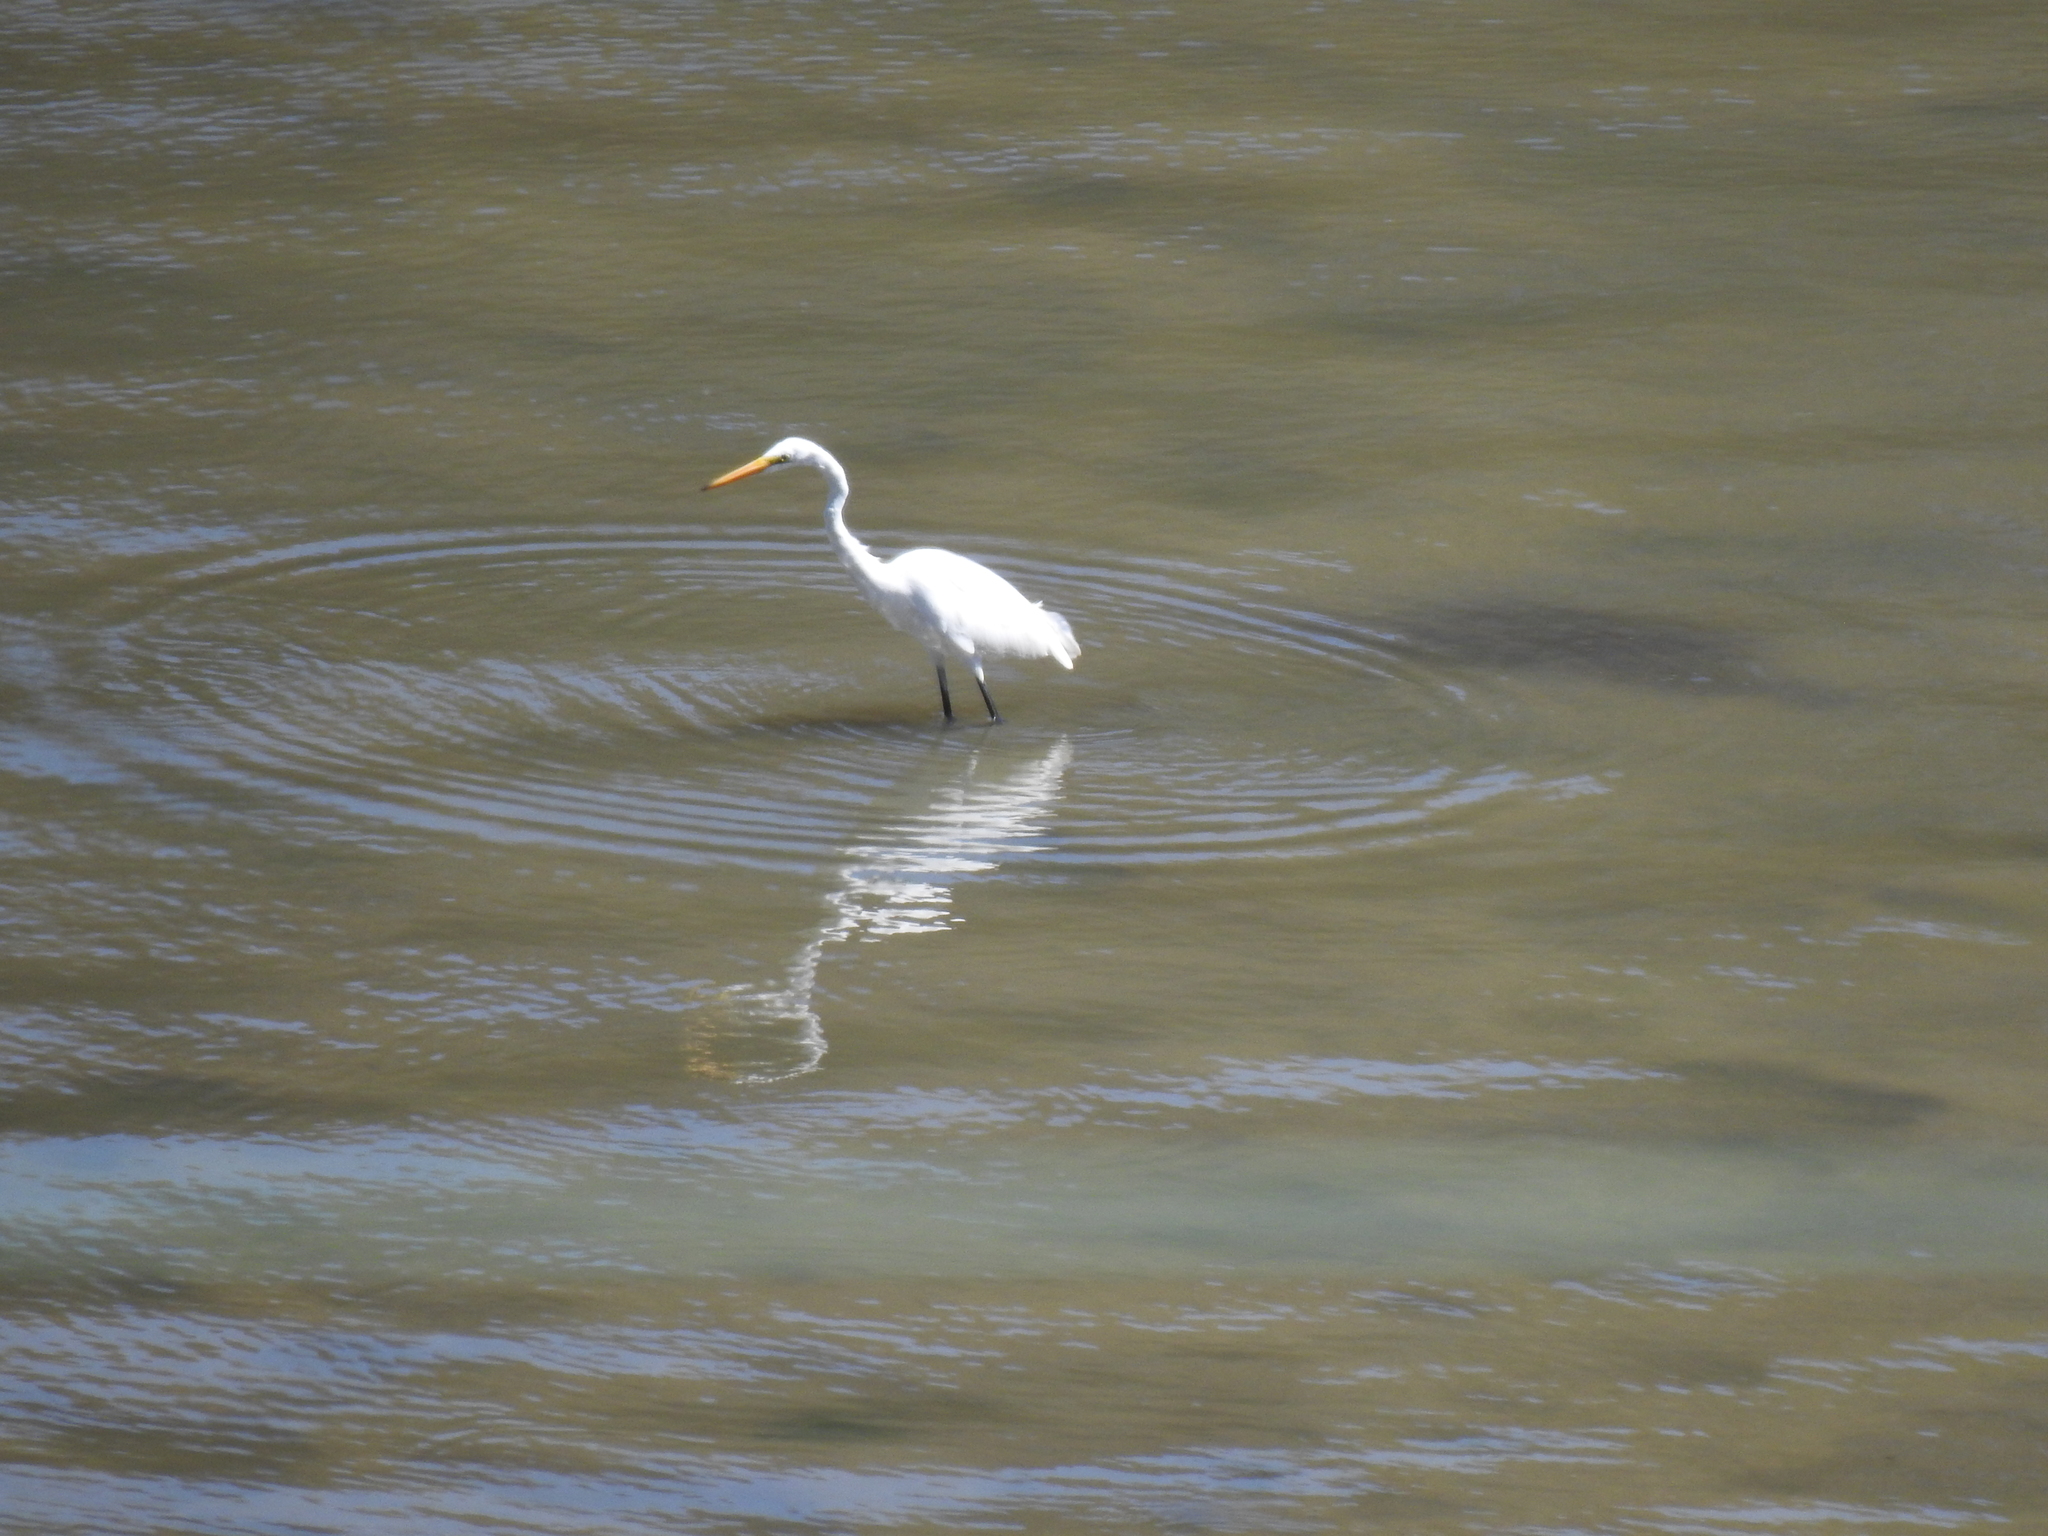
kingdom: Animalia
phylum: Chordata
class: Aves
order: Pelecaniformes
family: Ardeidae
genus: Ardea
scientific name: Ardea alba
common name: Great egret
